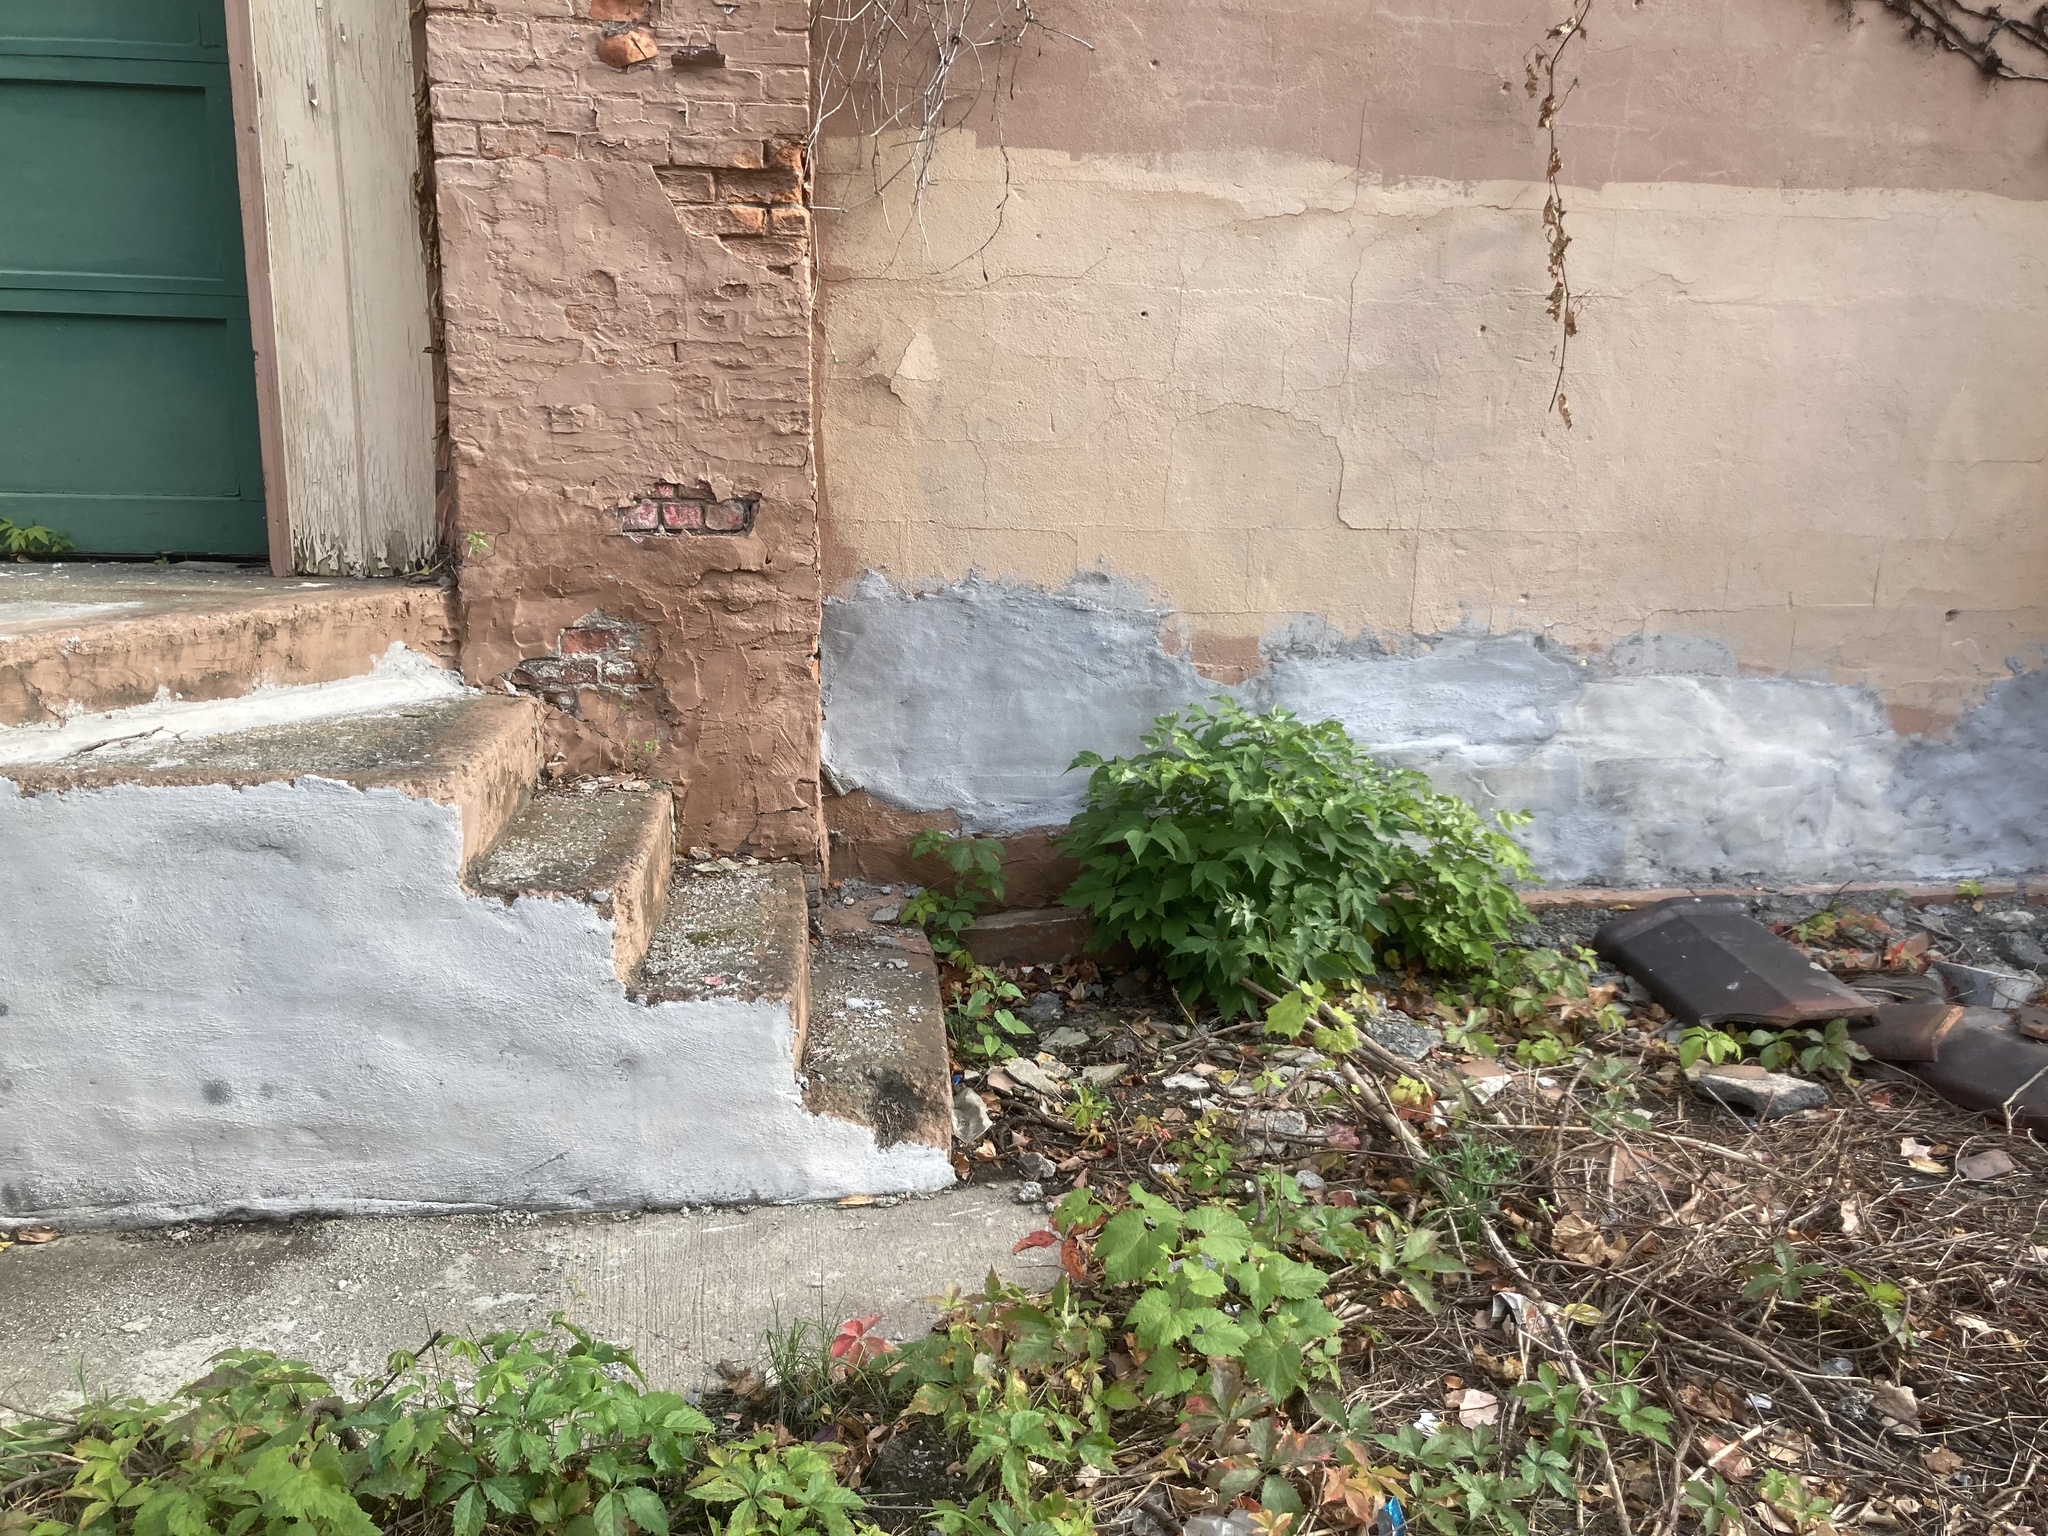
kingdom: Plantae
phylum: Tracheophyta
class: Magnoliopsida
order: Sapindales
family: Sapindaceae
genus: Acer
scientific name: Acer negundo
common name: Ashleaf maple
